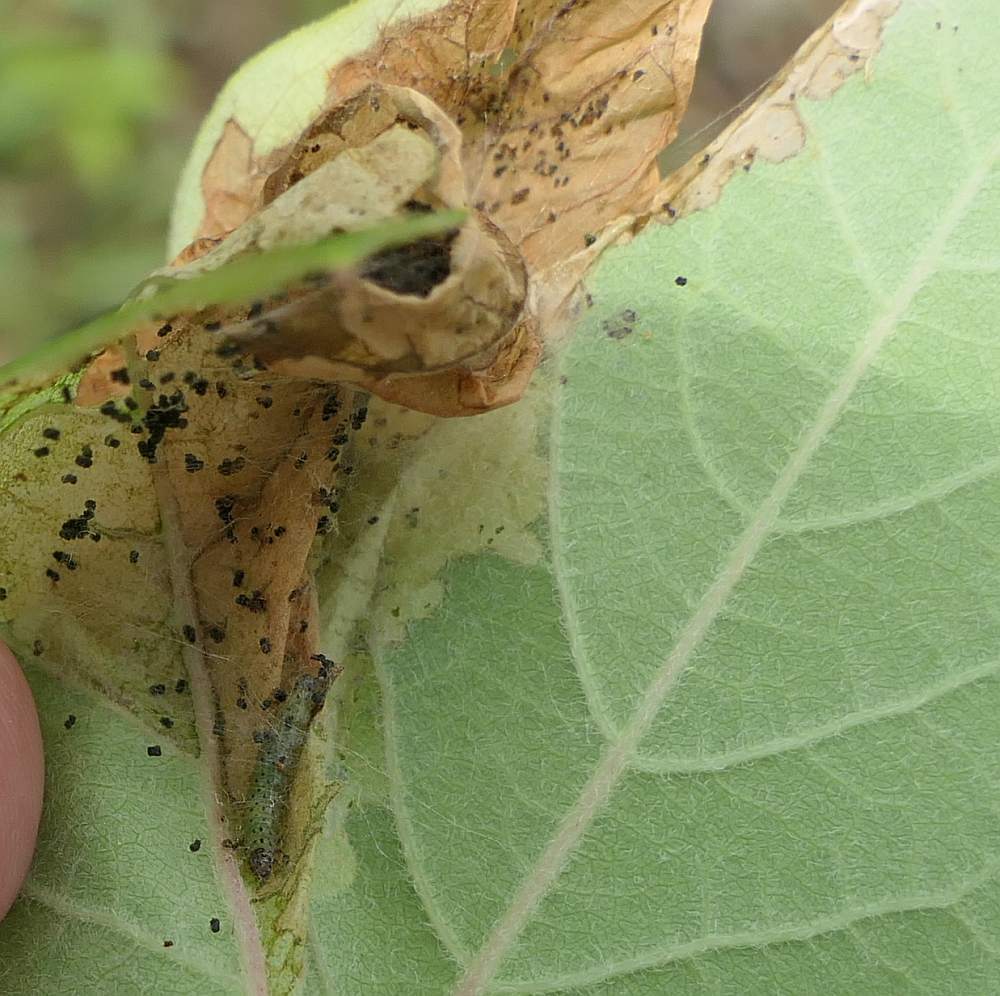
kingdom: Animalia
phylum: Arthropoda
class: Insecta
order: Lepidoptera
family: Crambidae
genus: Saucrobotys
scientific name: Saucrobotys futilalis
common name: Dogbane saucrobotys moth
